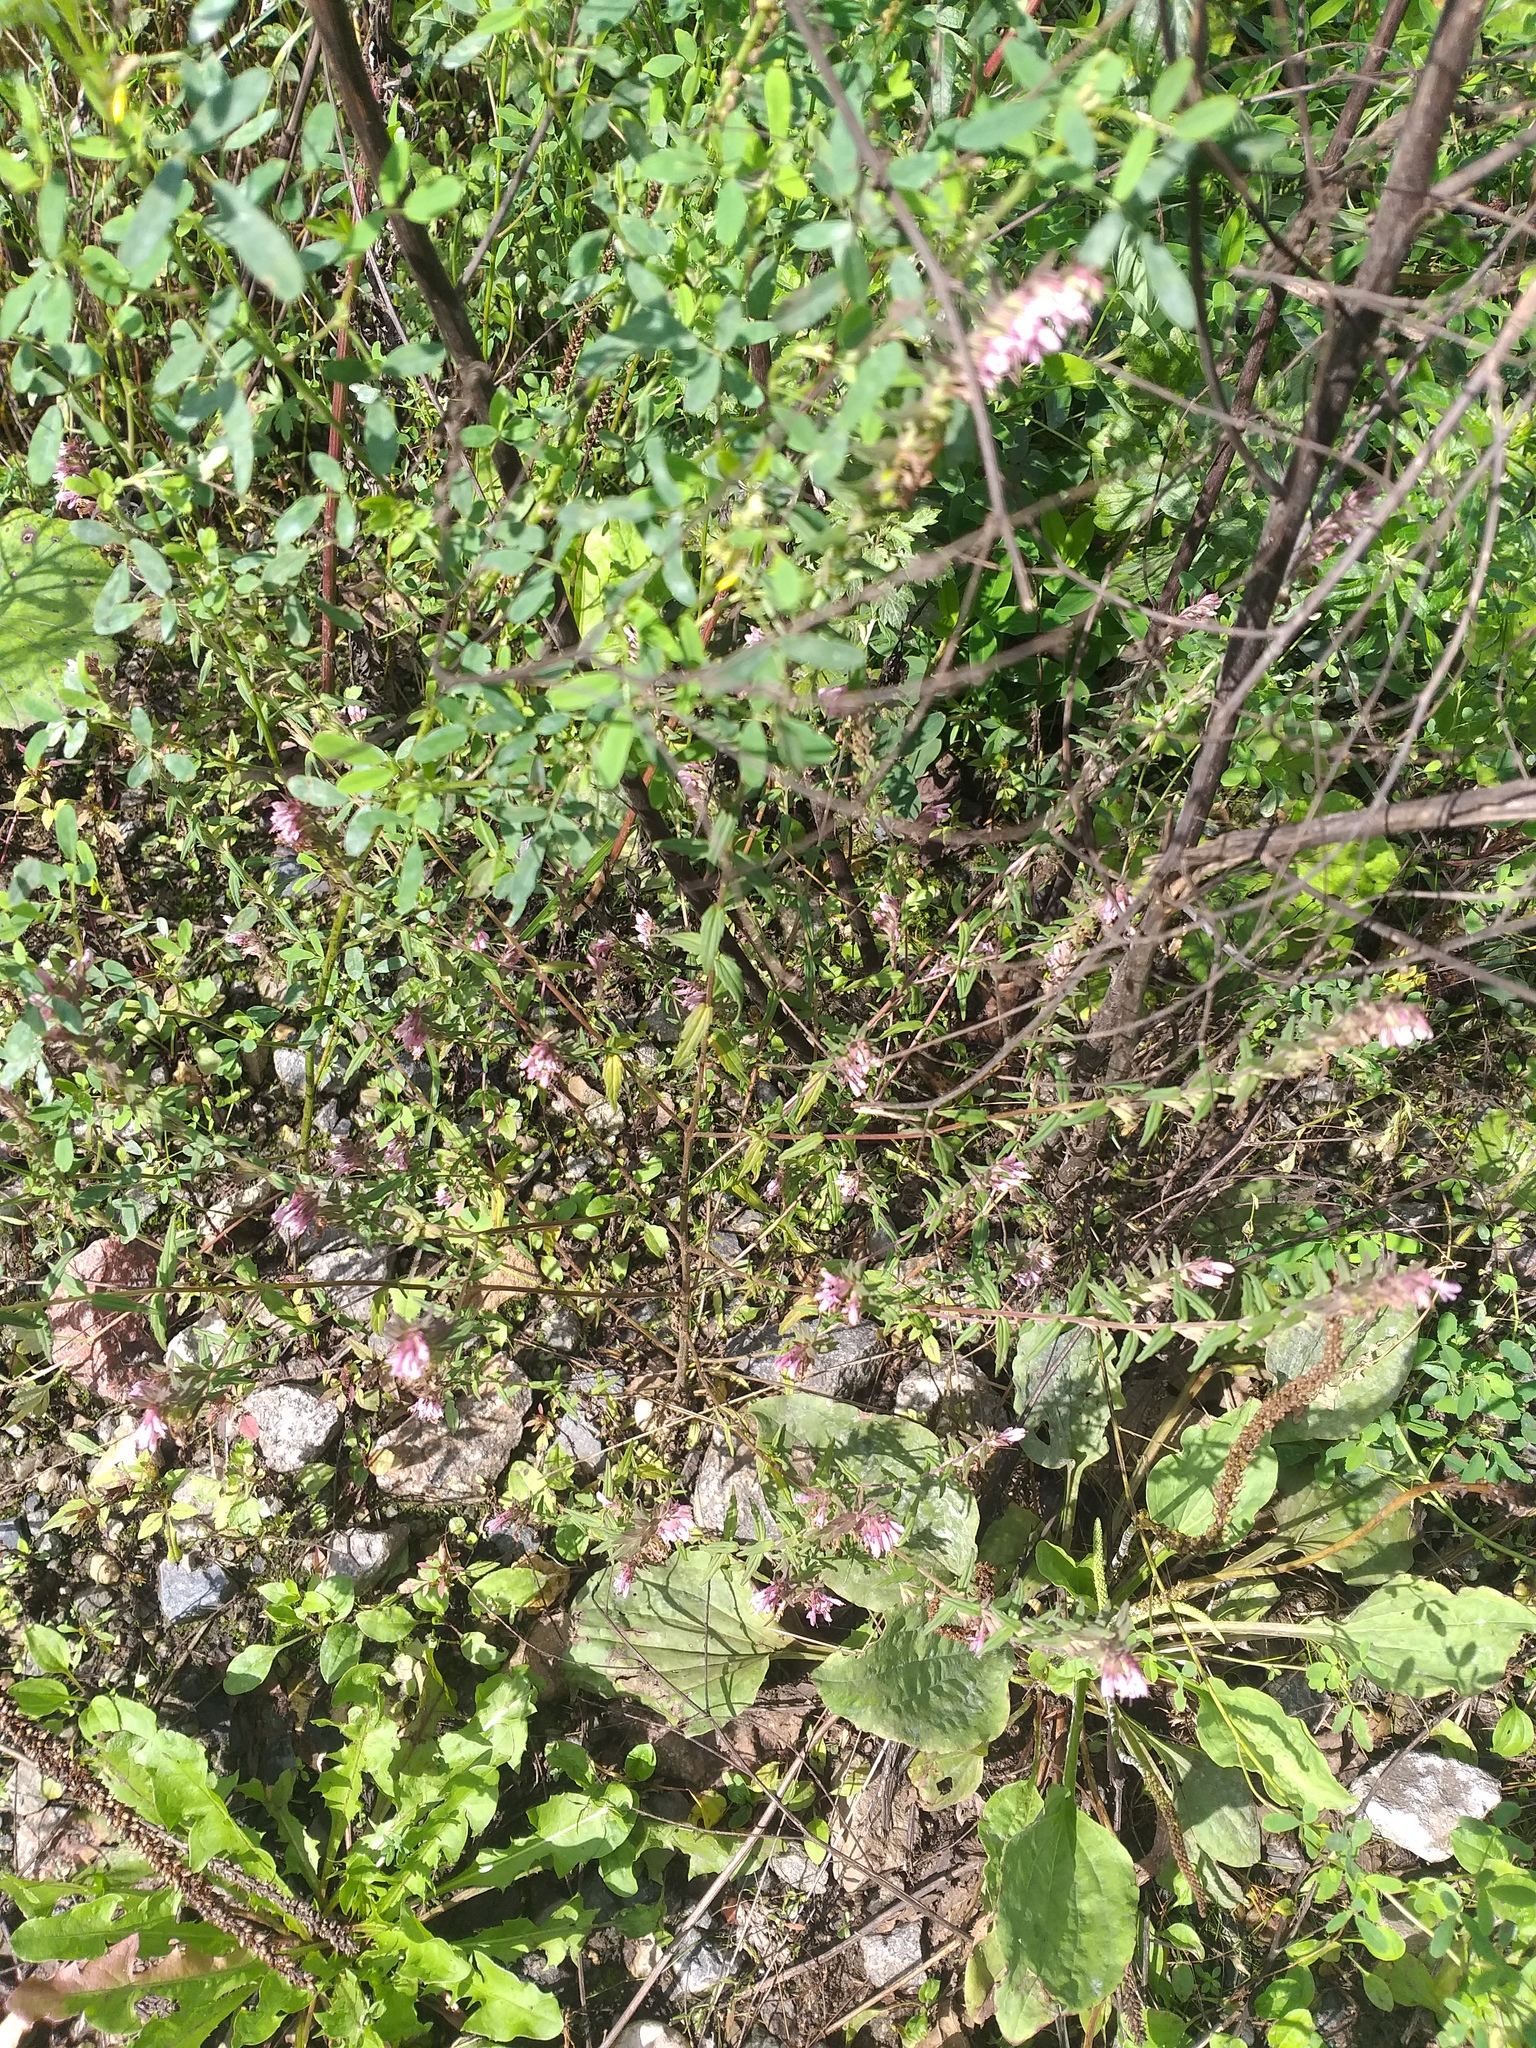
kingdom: Plantae
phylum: Tracheophyta
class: Magnoliopsida
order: Lamiales
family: Orobanchaceae
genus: Odontites
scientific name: Odontites vulgaris
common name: Broomrape
